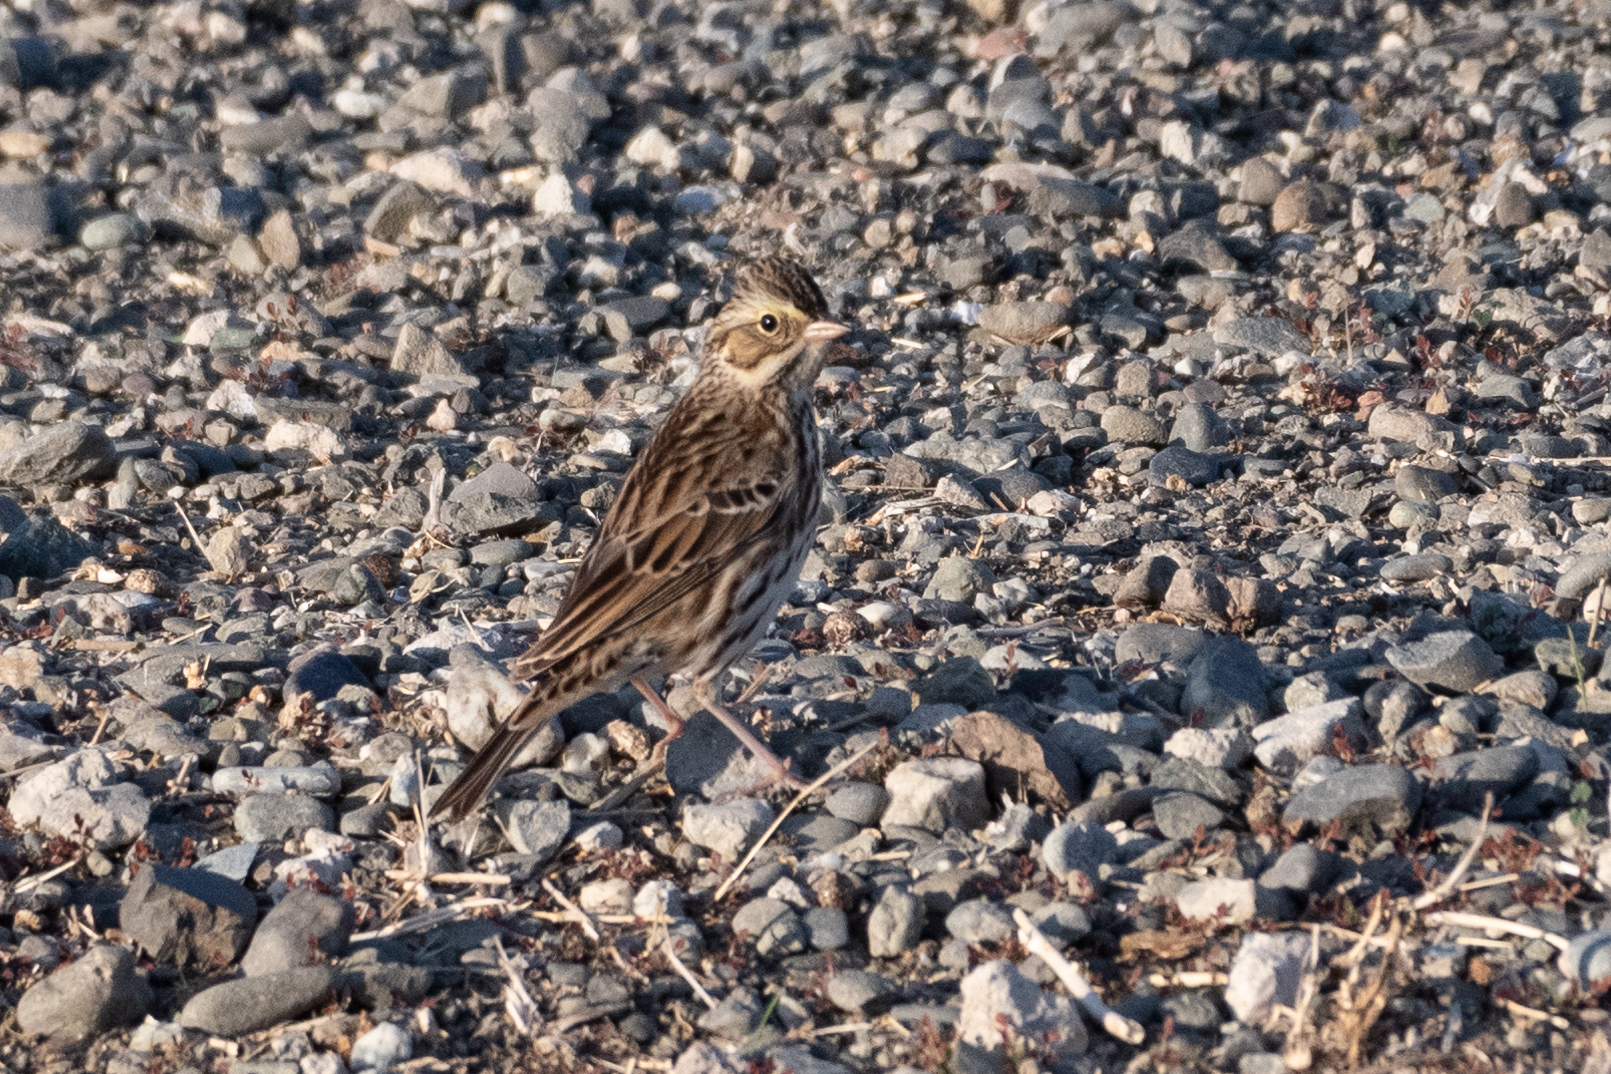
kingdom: Animalia
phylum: Chordata
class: Aves
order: Passeriformes
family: Passerellidae
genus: Passerculus
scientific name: Passerculus sandwichensis
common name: Savannah sparrow
